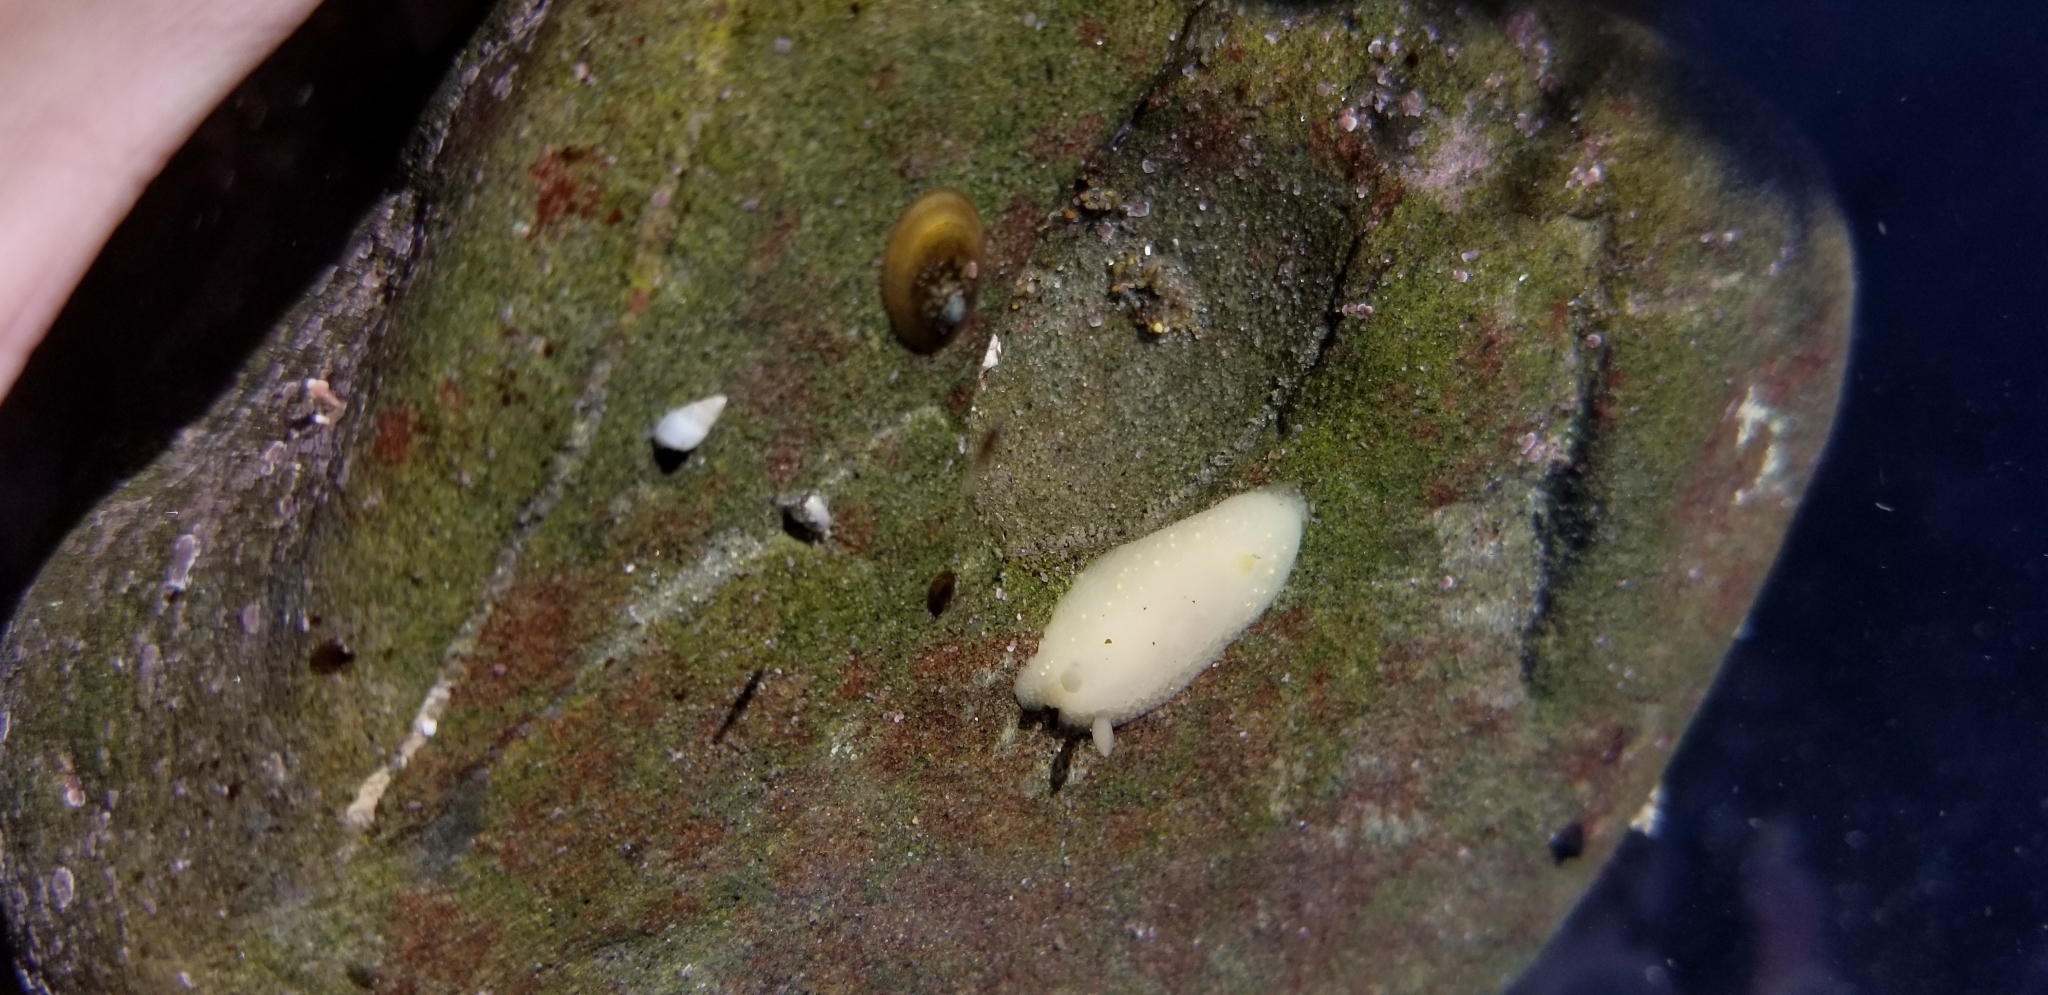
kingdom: Animalia
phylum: Mollusca
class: Gastropoda
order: Nudibranchia
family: Cadlinidae
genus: Cadlina
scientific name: Cadlina modesta
